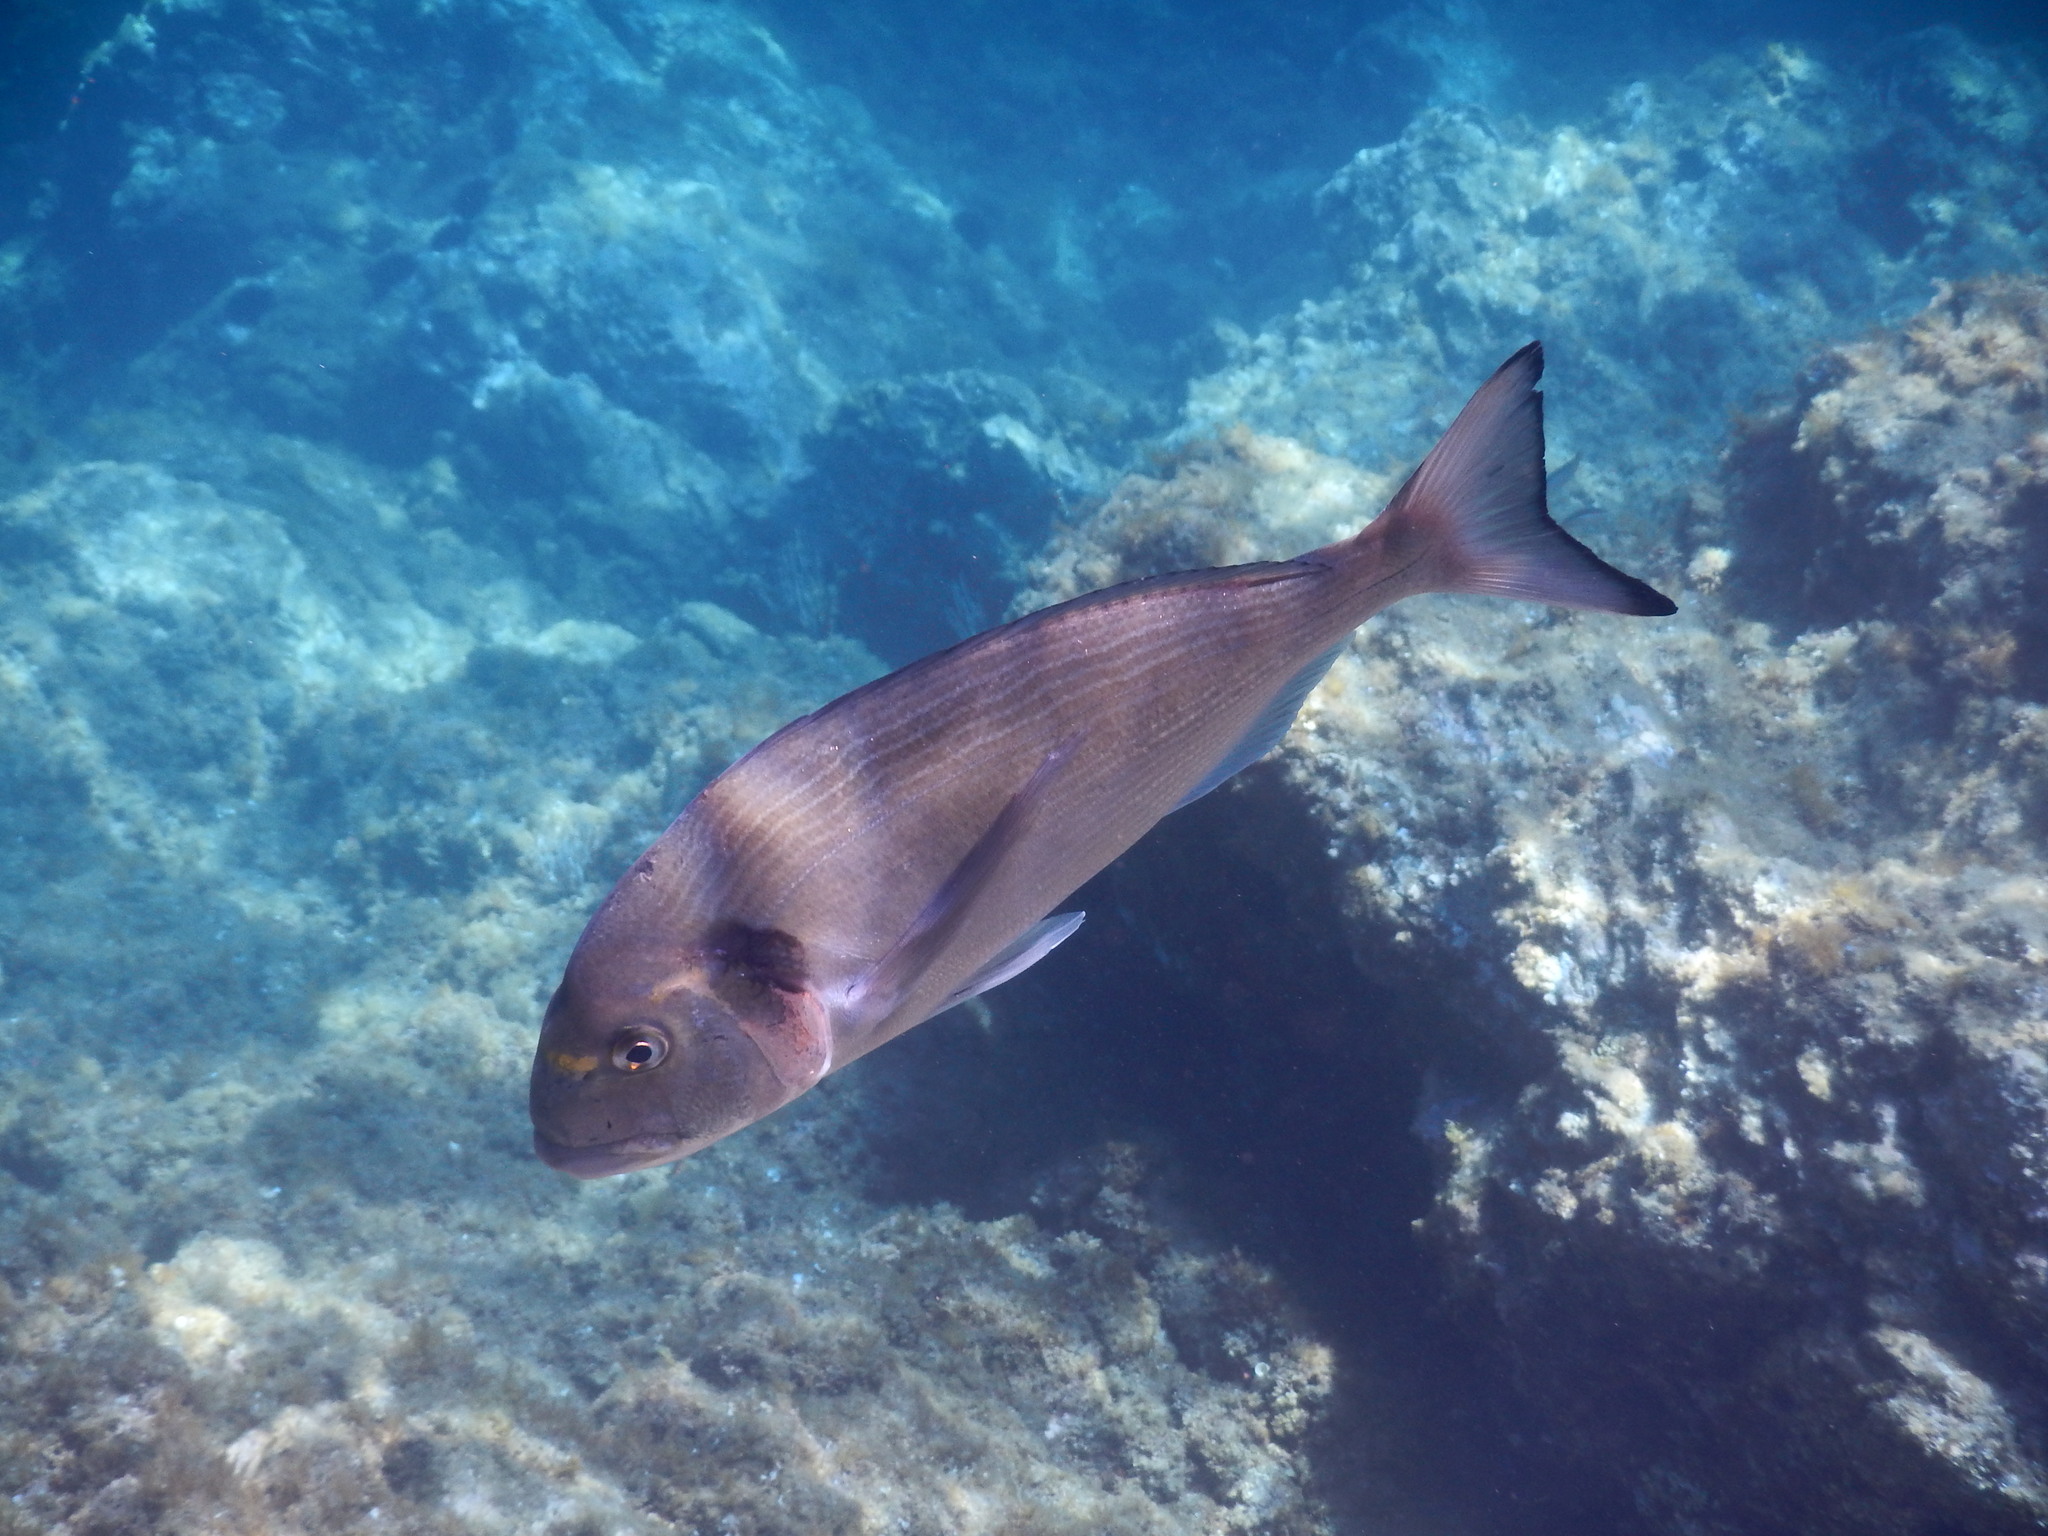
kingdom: Animalia
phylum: Chordata
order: Perciformes
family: Sparidae
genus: Sparus
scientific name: Sparus aurata
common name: Gilthead
